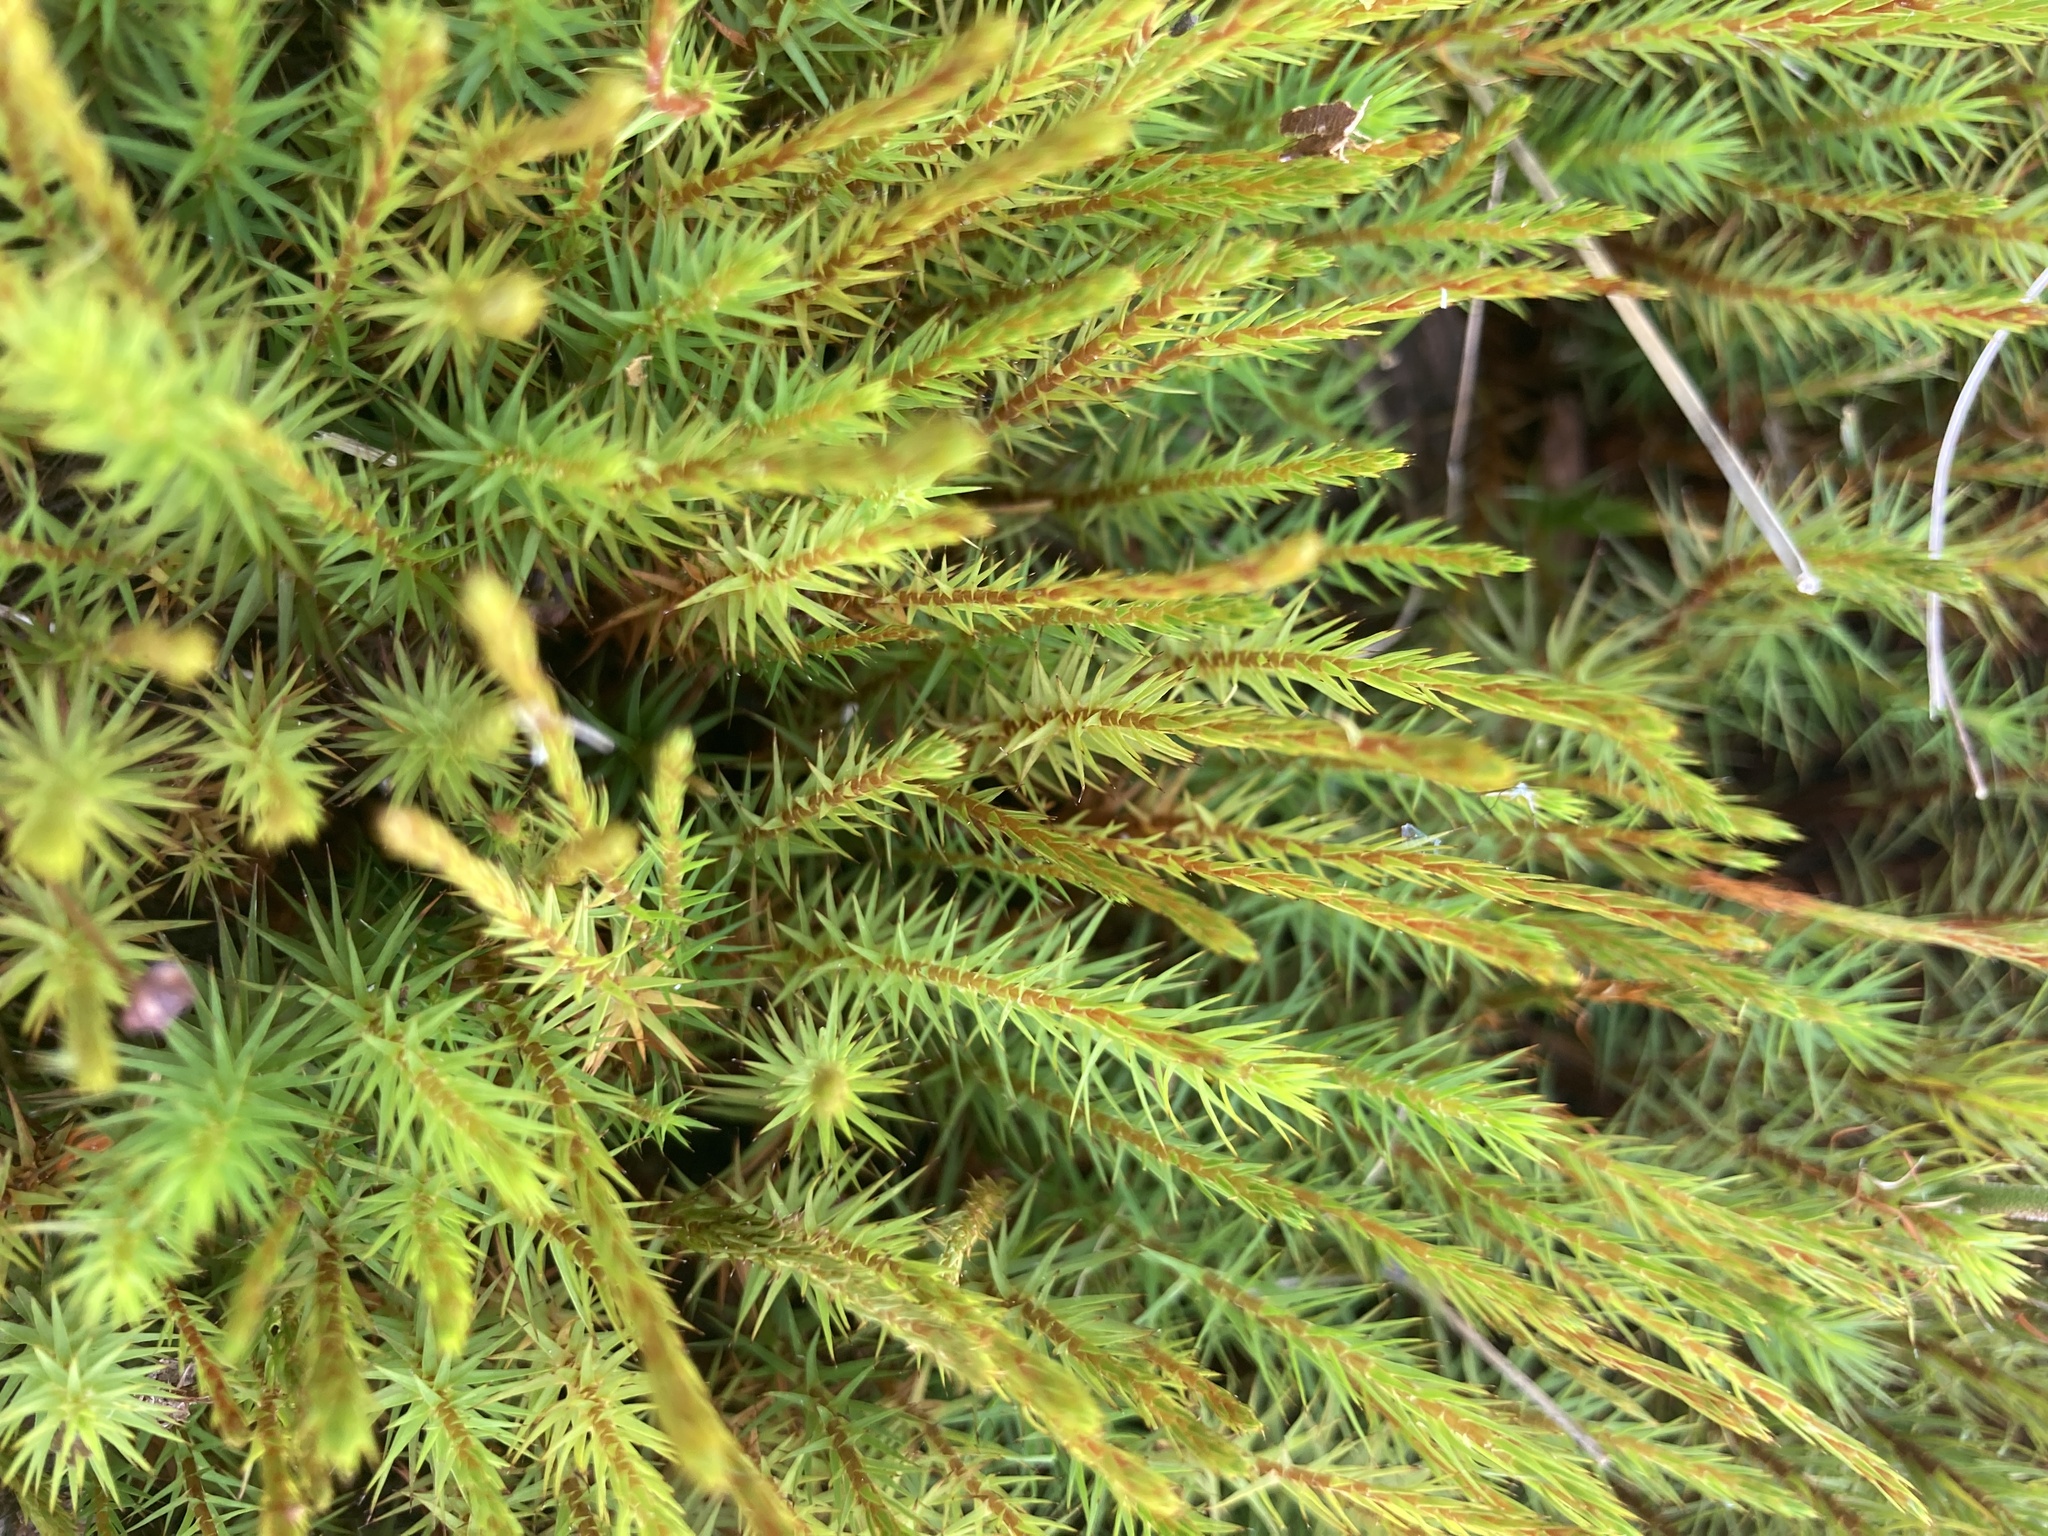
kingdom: Plantae
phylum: Bryophyta
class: Polytrichopsida
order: Polytrichales
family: Polytrichaceae
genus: Polytrichum
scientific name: Polytrichum commune
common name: Common haircap
